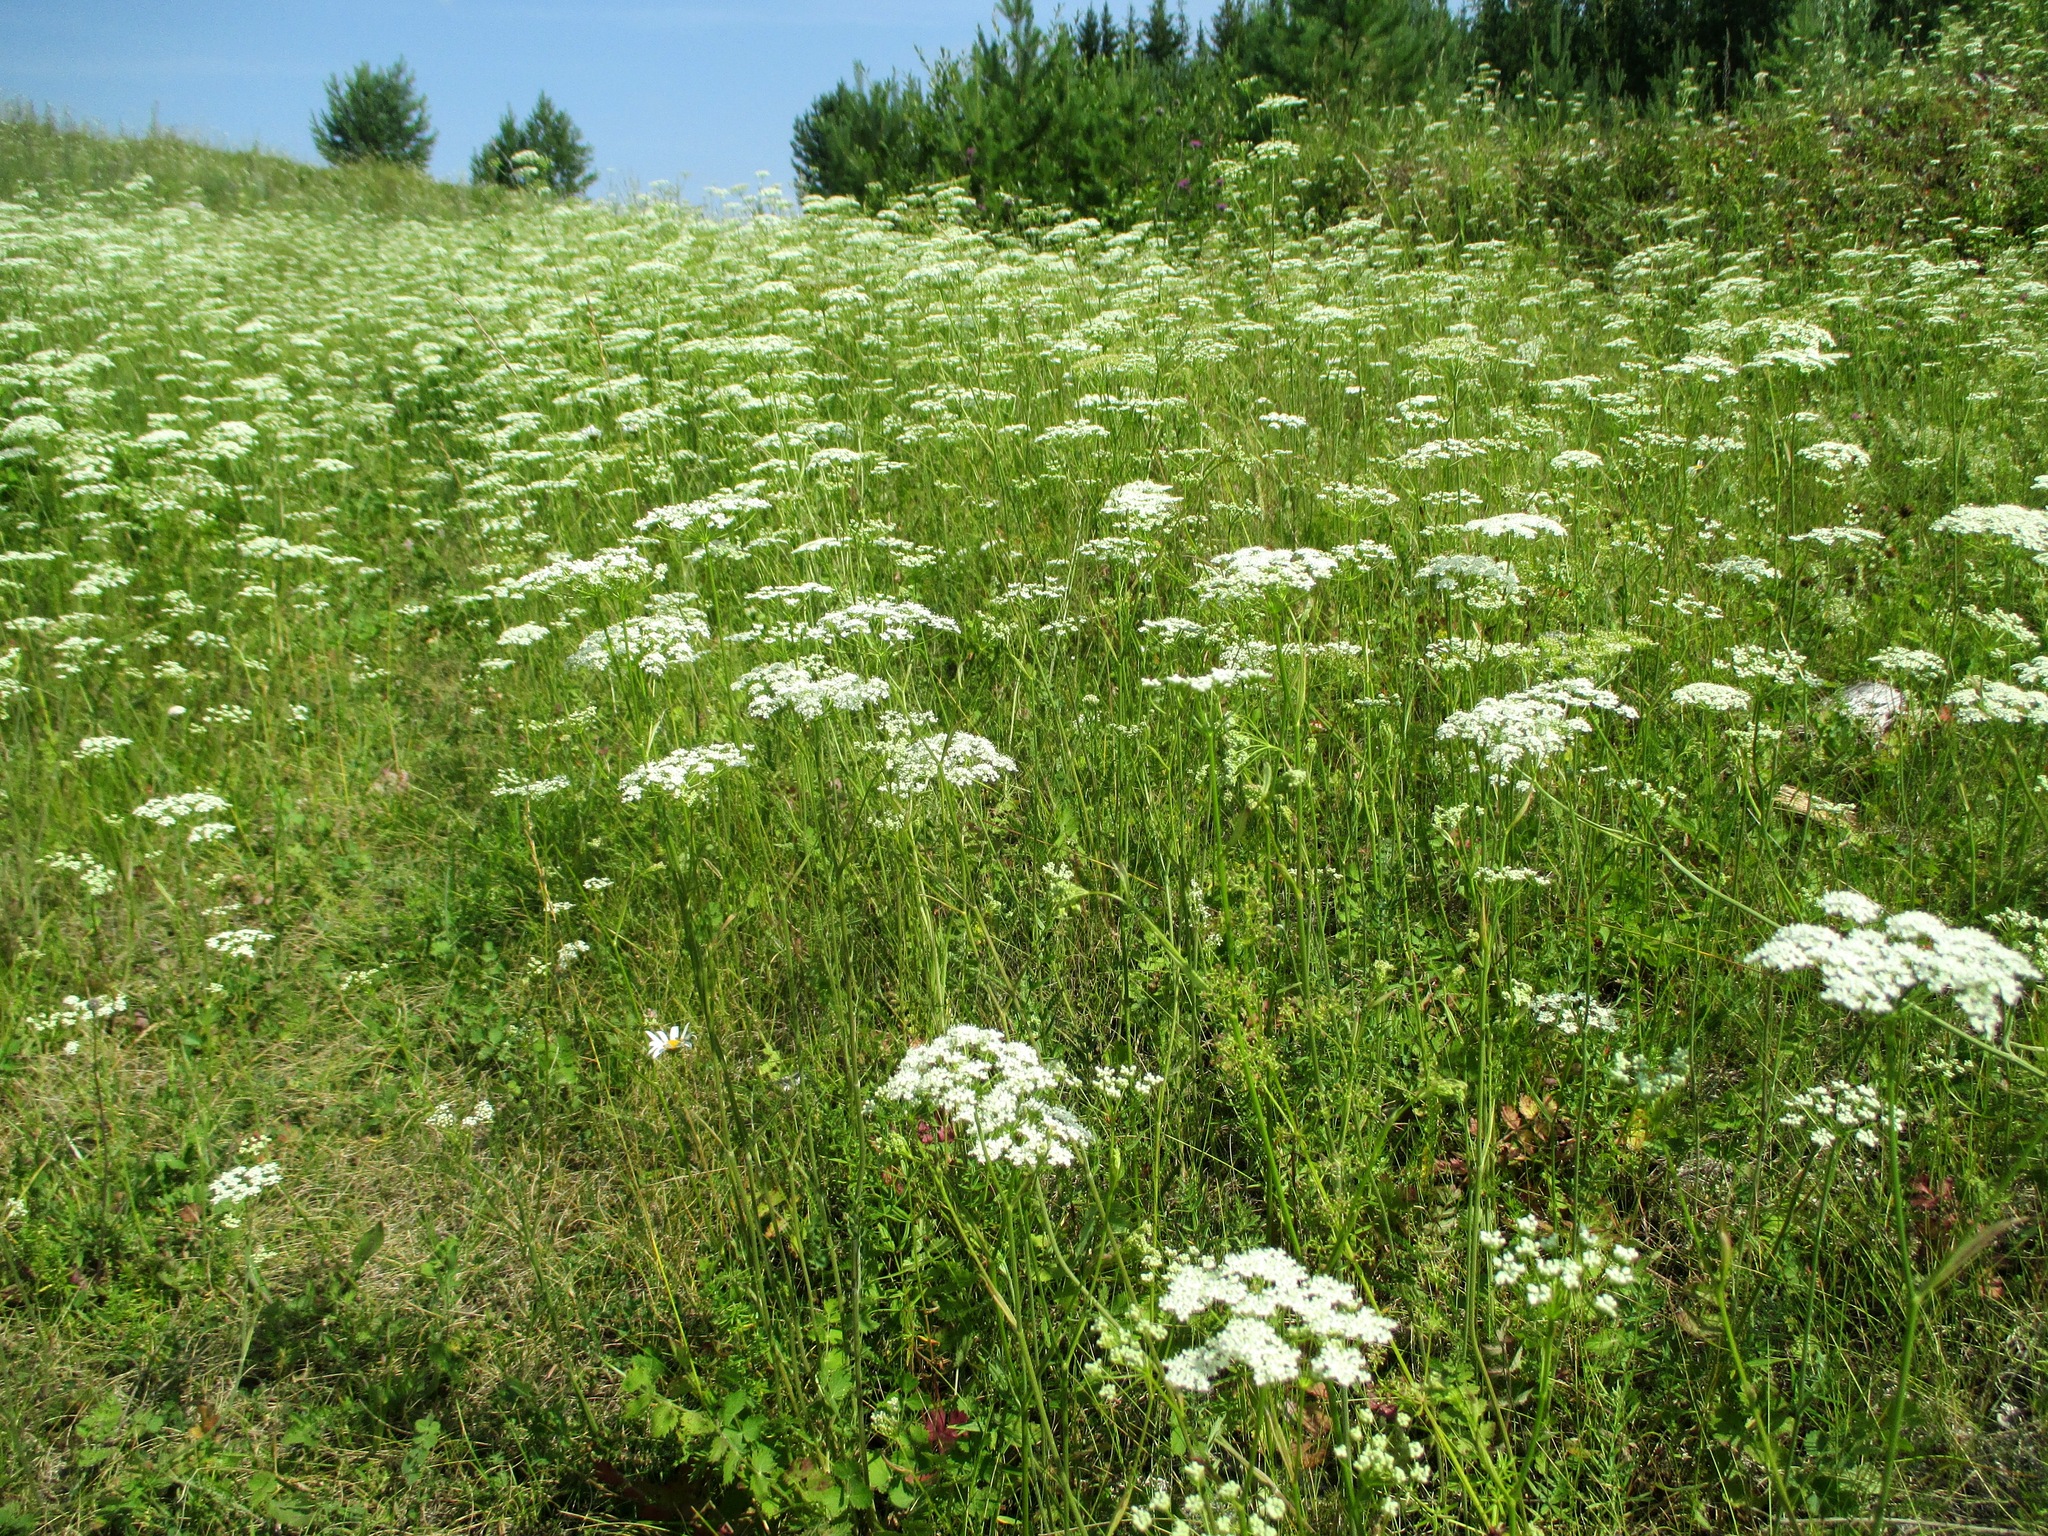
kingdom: Plantae
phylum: Tracheophyta
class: Magnoliopsida
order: Apiales
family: Apiaceae
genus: Pimpinella
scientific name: Pimpinella saxifraga
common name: Burnet-saxifrage
